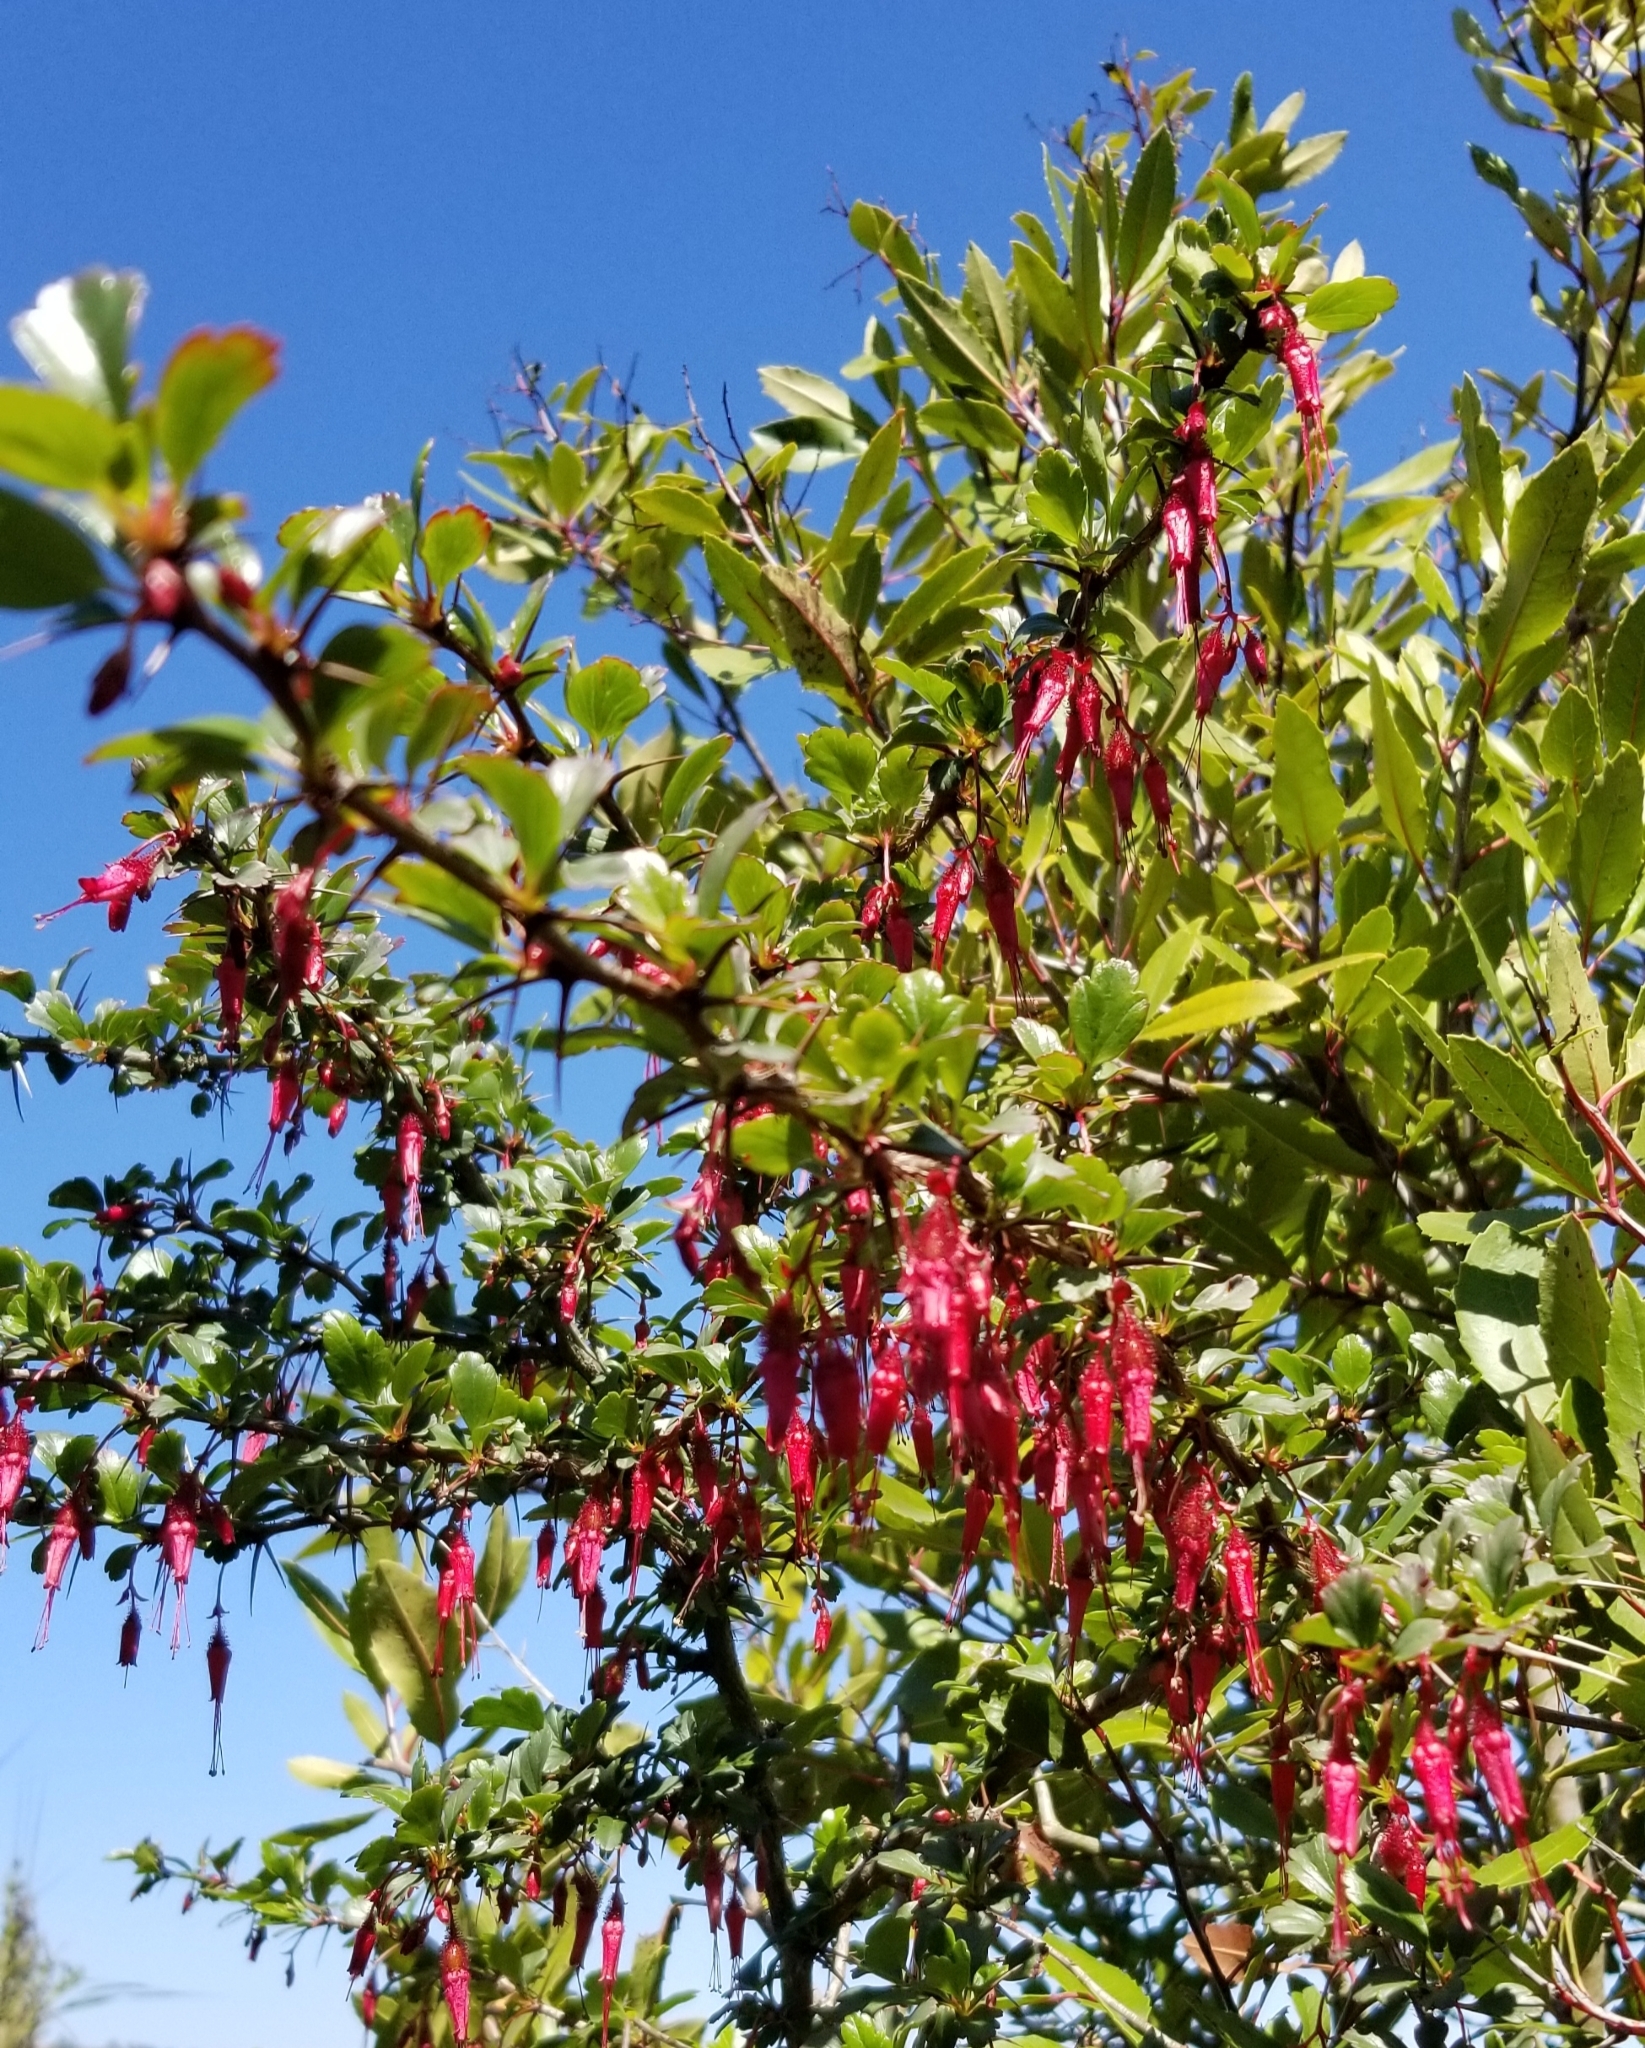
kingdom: Plantae
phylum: Tracheophyta
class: Magnoliopsida
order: Saxifragales
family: Grossulariaceae
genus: Ribes
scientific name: Ribes speciosum
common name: Fuchsia-flower gooseberry
